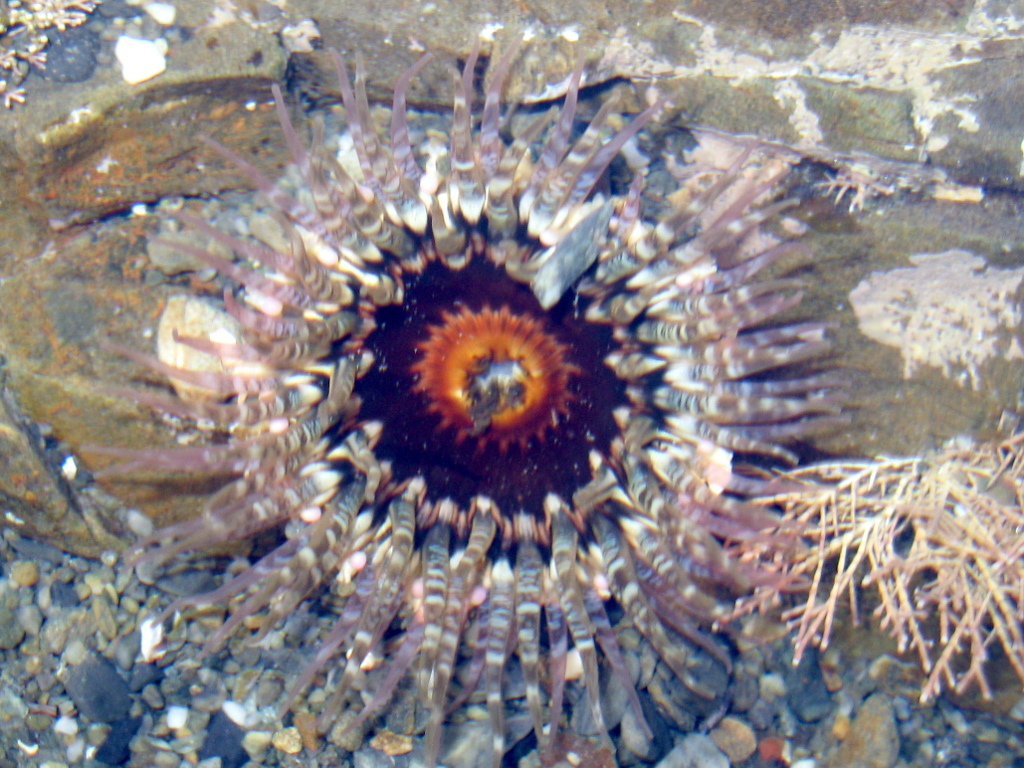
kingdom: Animalia
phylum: Cnidaria
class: Anthozoa
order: Actiniaria
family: Actiniidae
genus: Oulactis
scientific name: Oulactis muscosa
